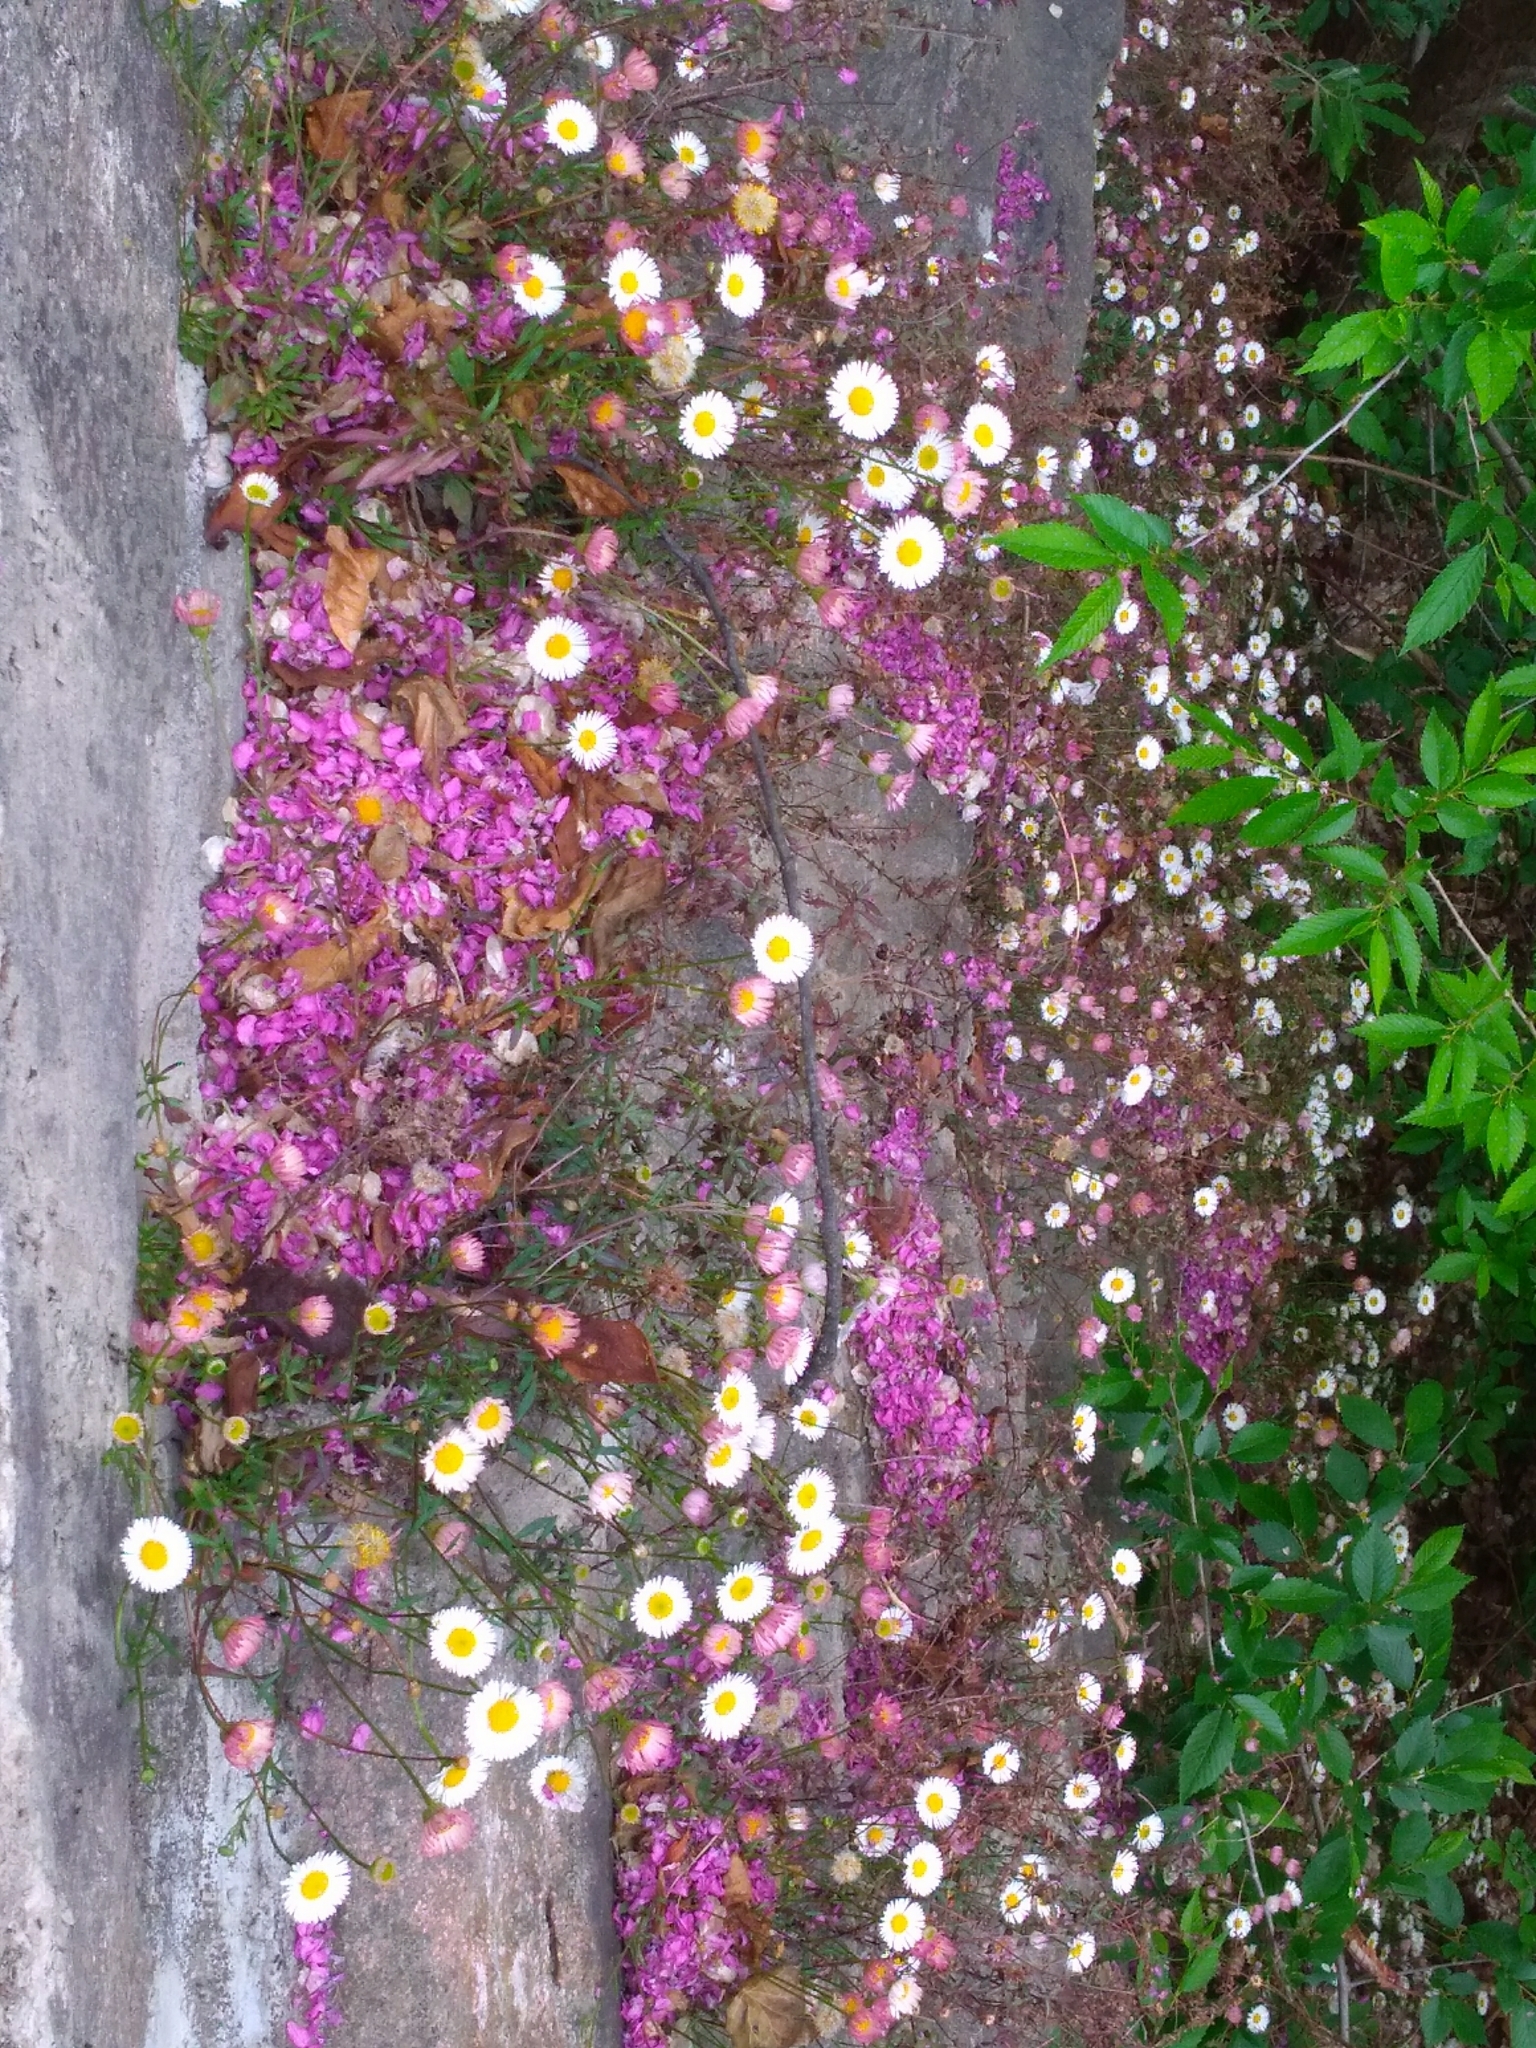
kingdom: Plantae
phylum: Tracheophyta
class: Magnoliopsida
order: Asterales
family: Asteraceae
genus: Erigeron
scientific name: Erigeron karvinskianus
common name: Mexican fleabane
